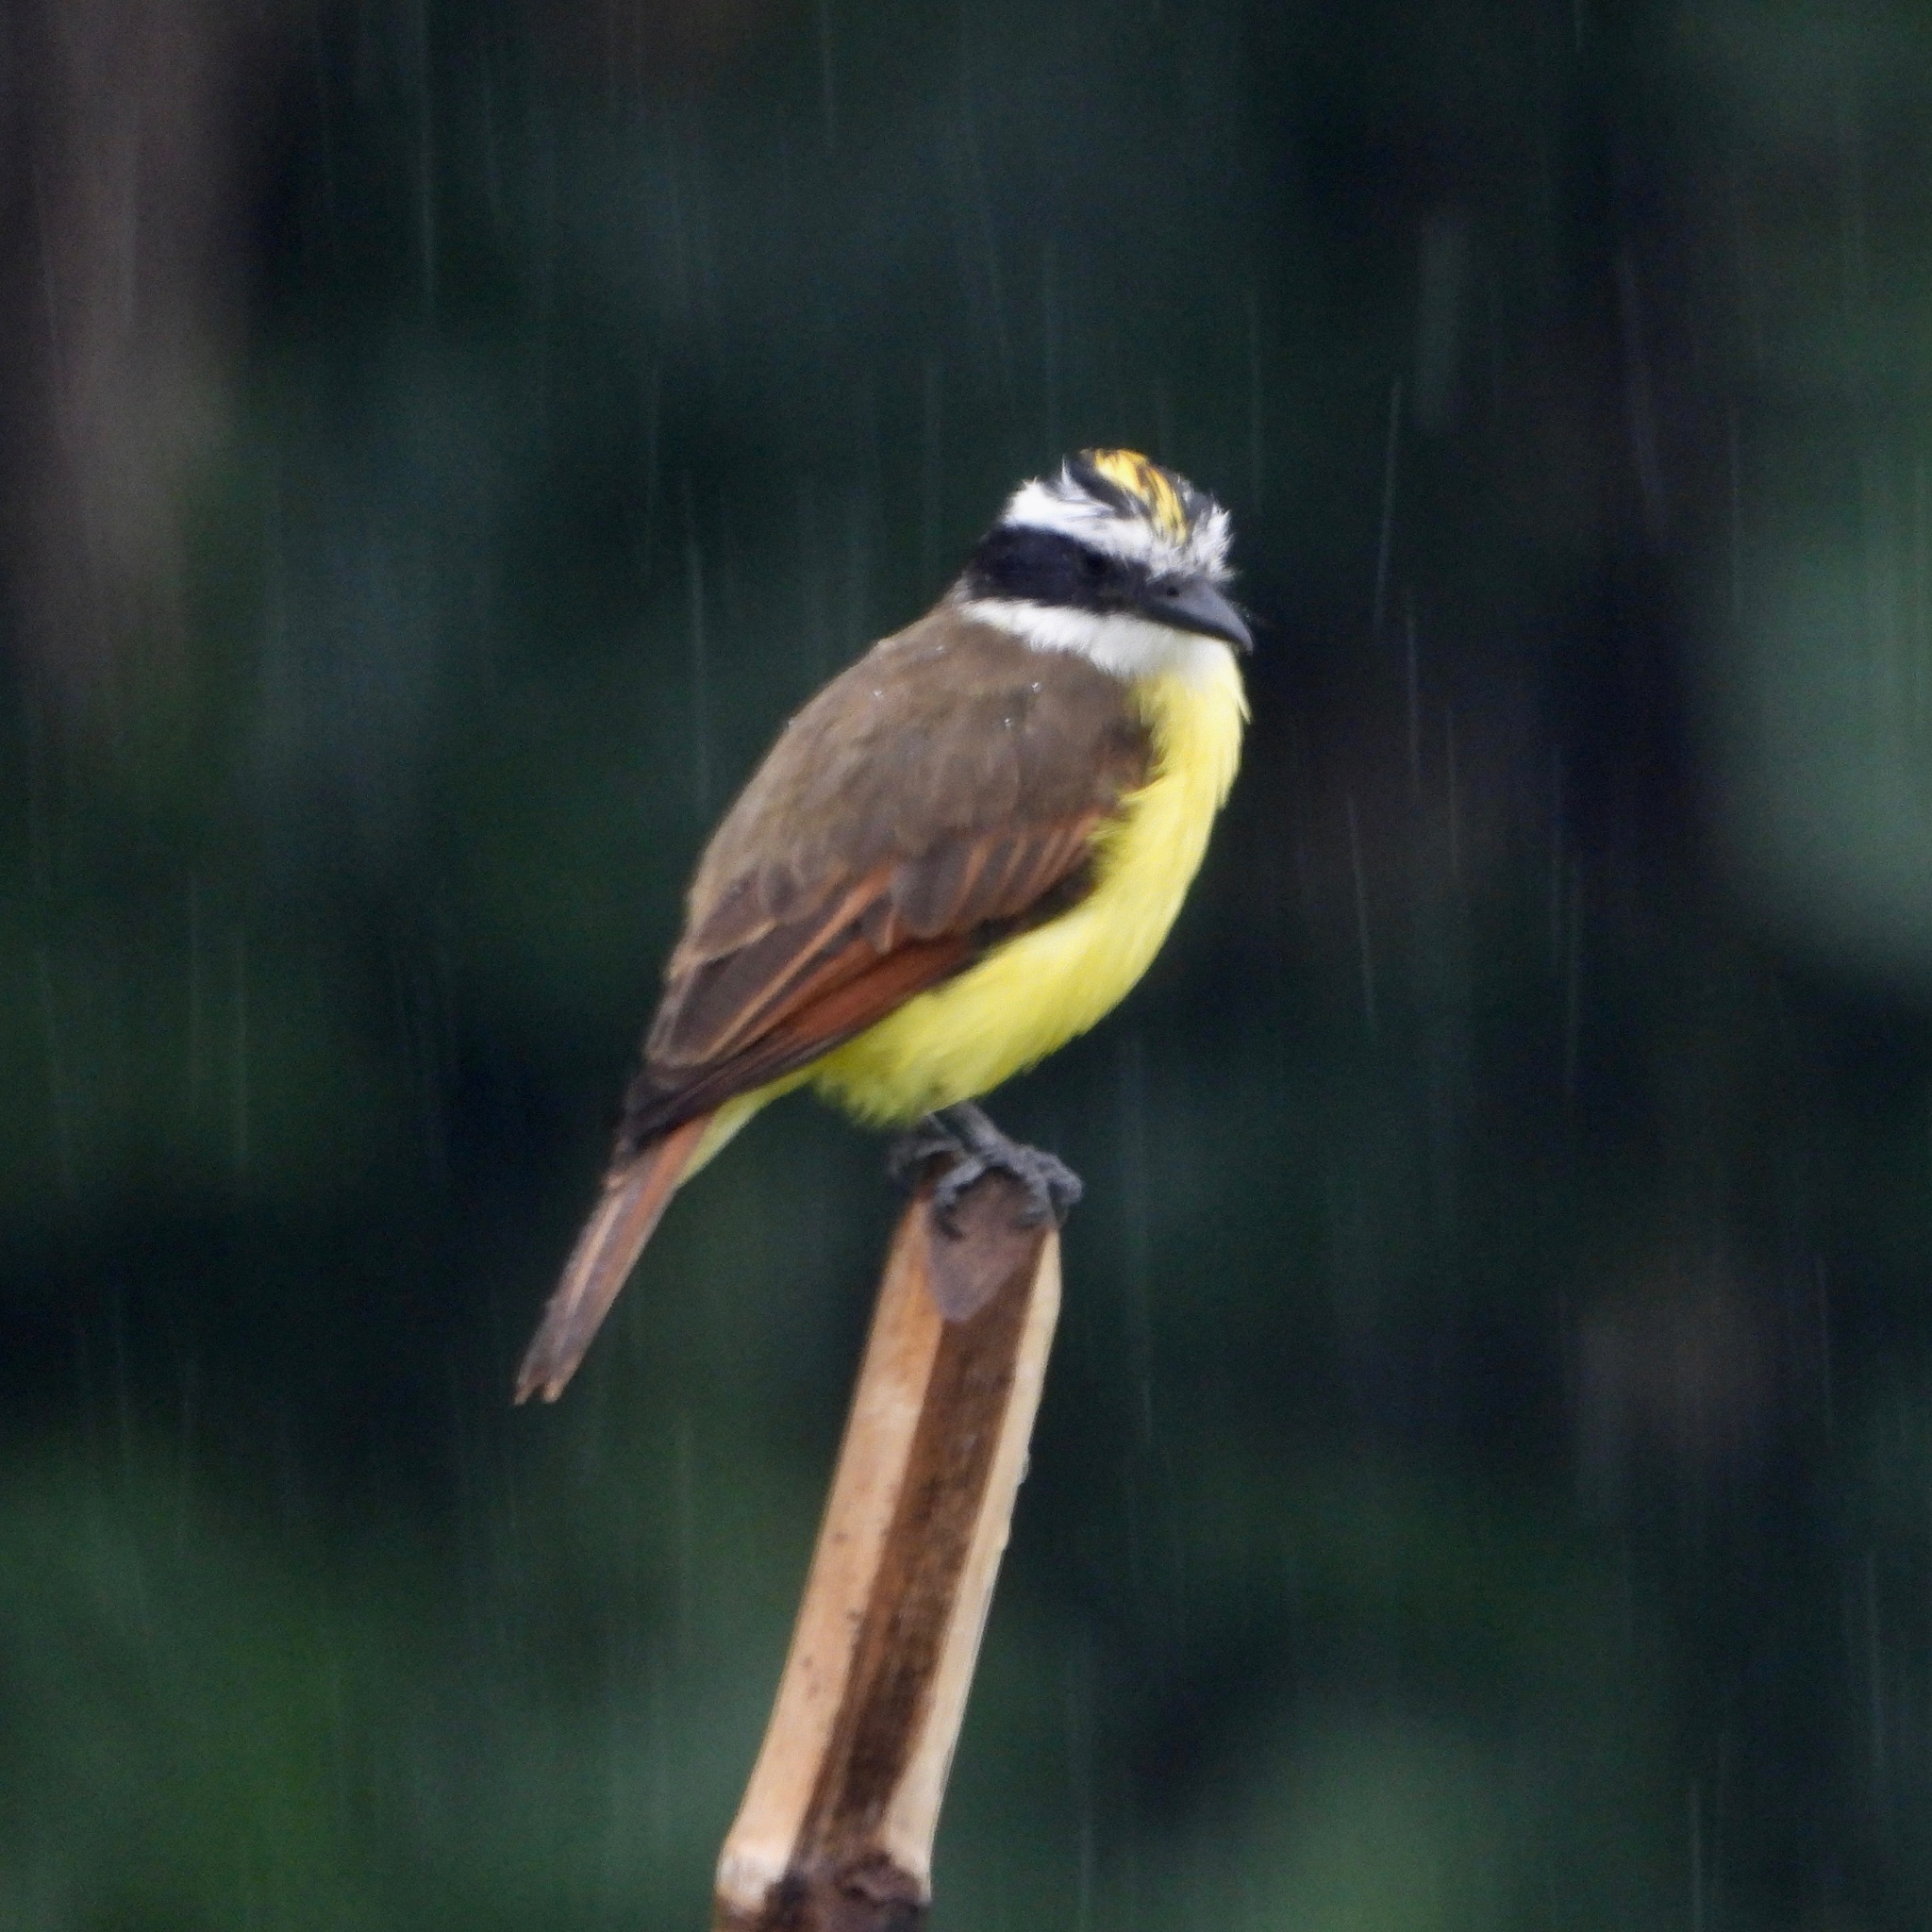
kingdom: Animalia
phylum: Chordata
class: Aves
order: Passeriformes
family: Tyrannidae
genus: Pitangus
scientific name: Pitangus sulphuratus
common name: Great kiskadee
